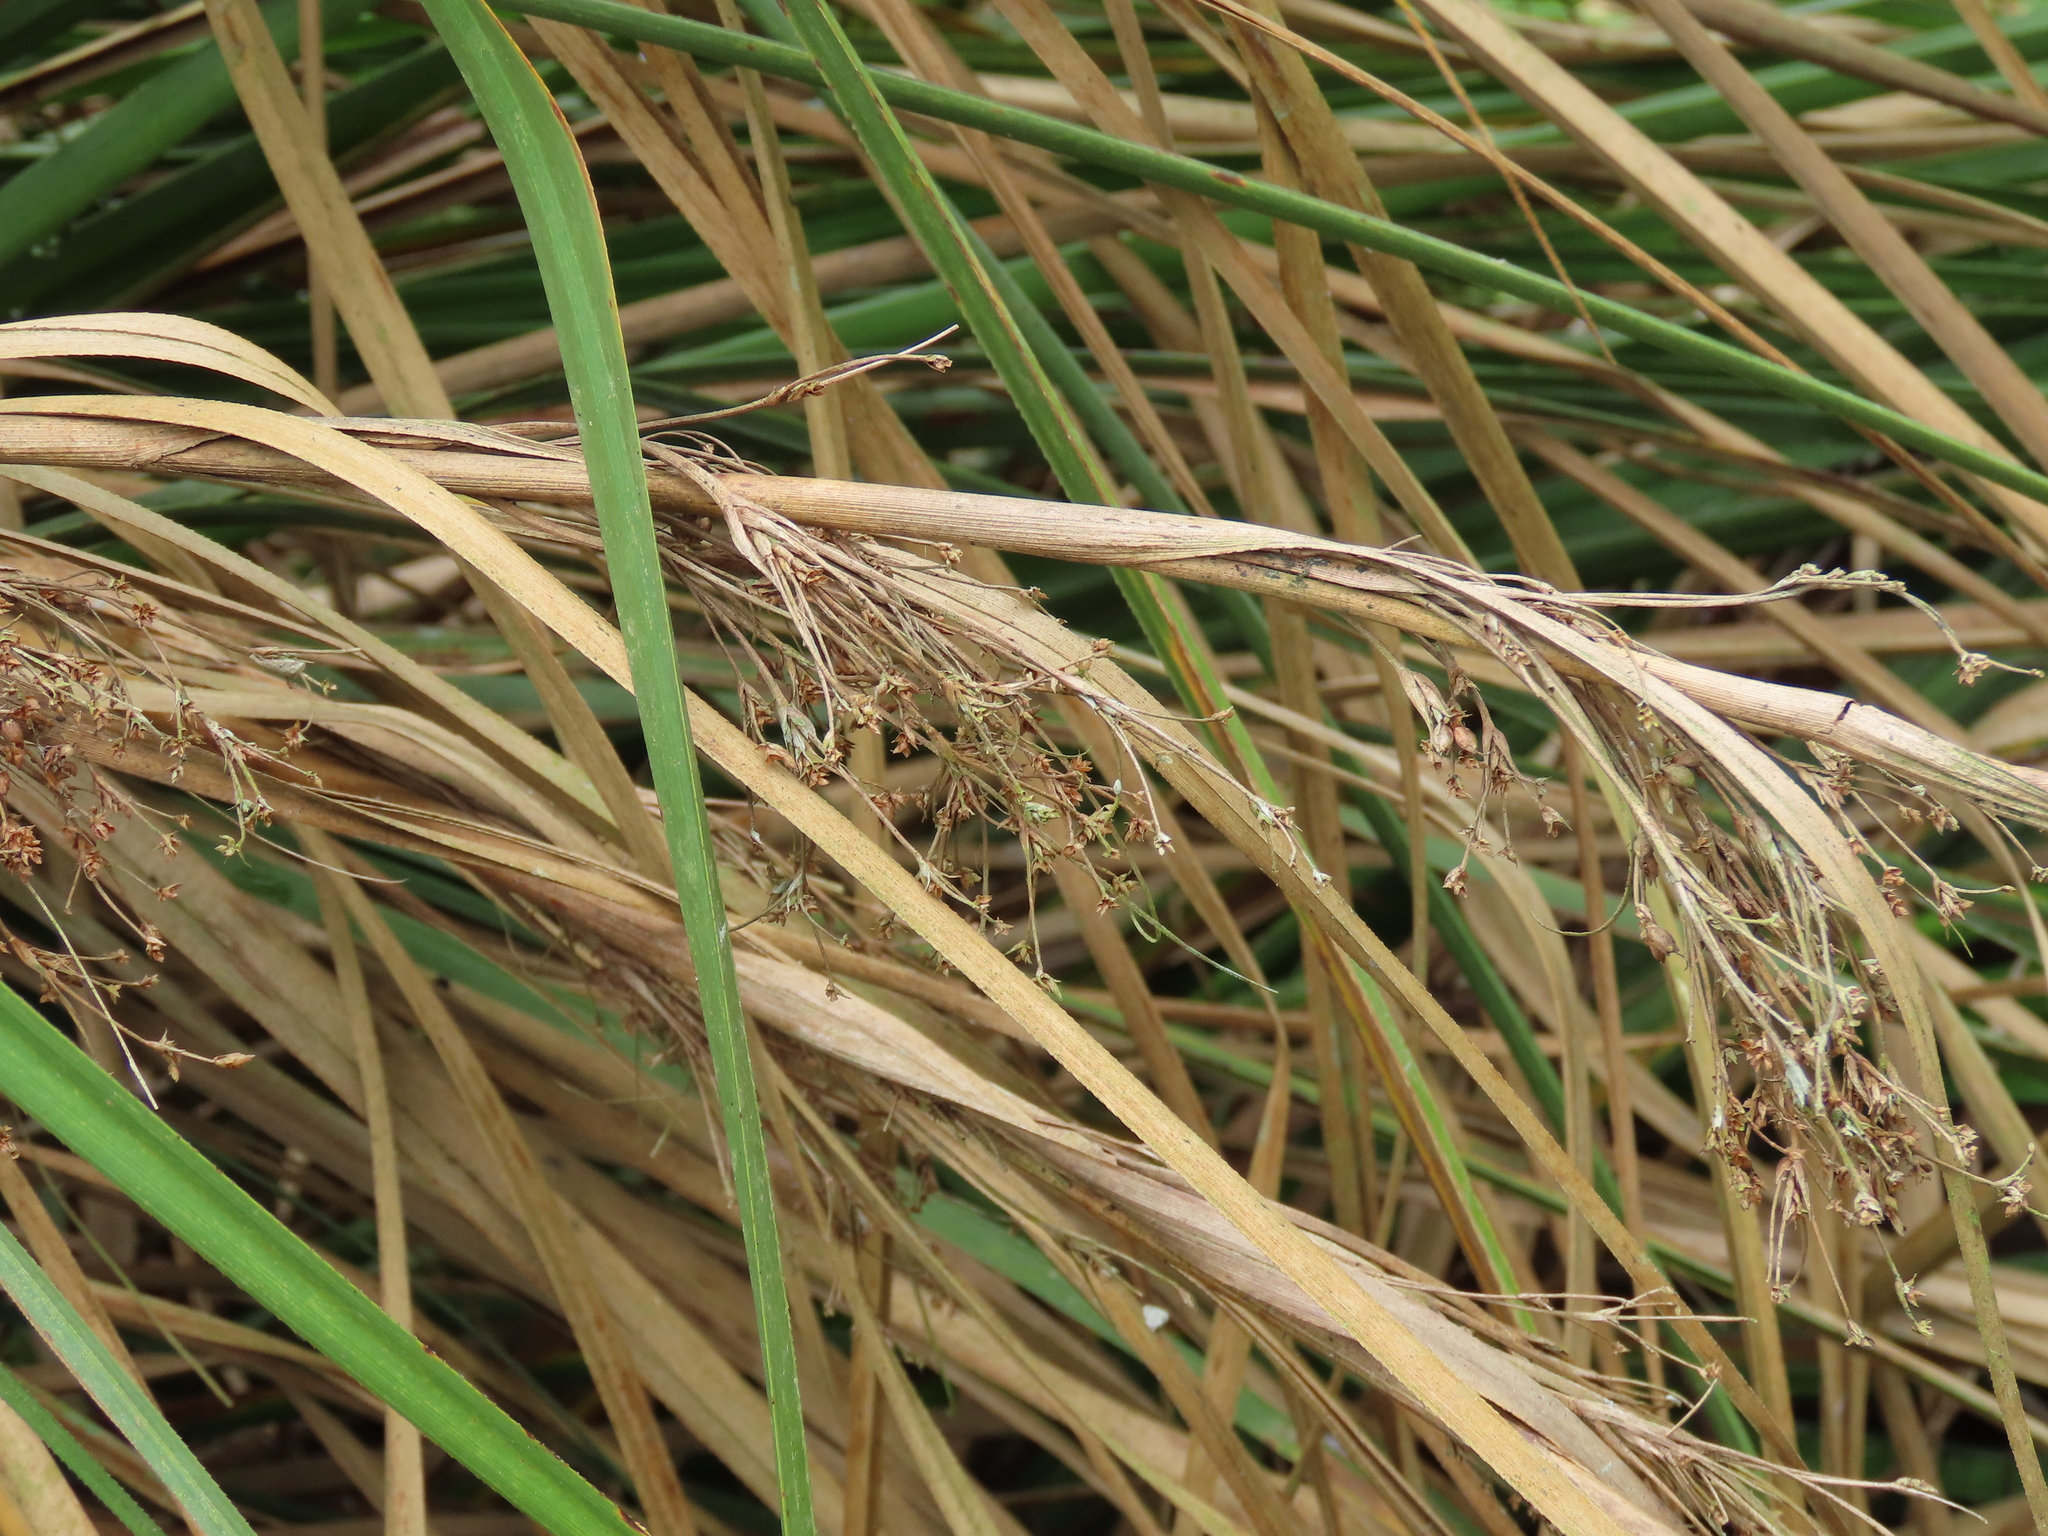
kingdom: Plantae
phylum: Tracheophyta
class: Liliopsida
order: Poales
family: Cyperaceae
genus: Cladium
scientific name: Cladium mariscus
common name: Great fen-sedge
